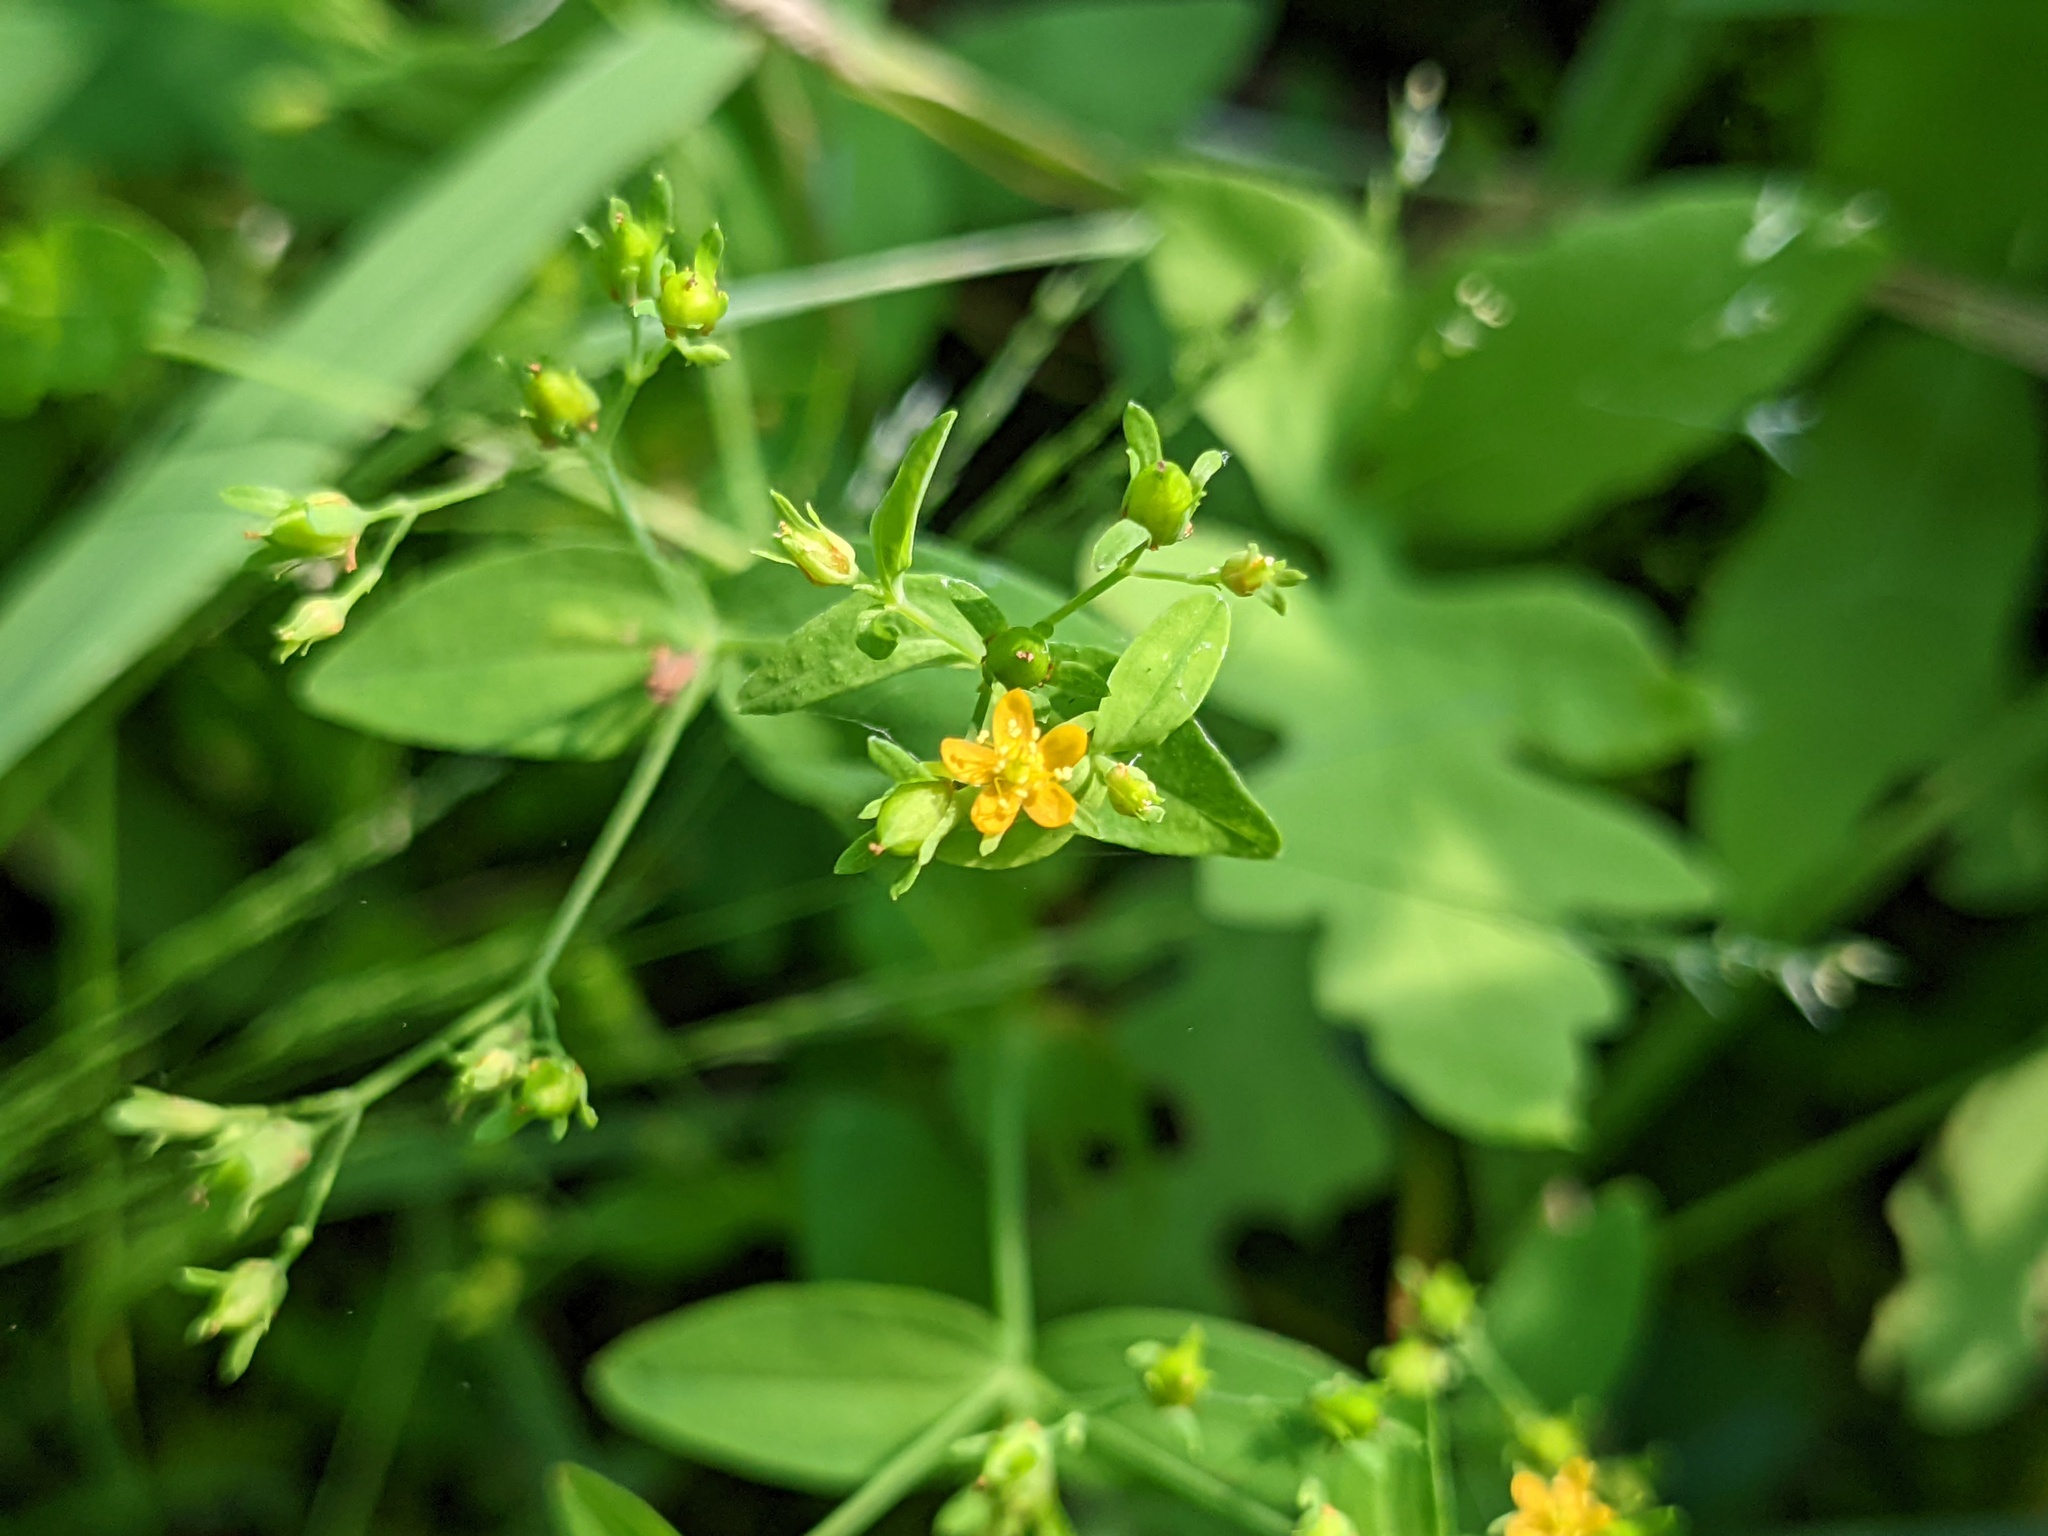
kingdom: Plantae
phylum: Tracheophyta
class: Magnoliopsida
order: Malpighiales
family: Hypericaceae
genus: Hypericum
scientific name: Hypericum mutilum
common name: Dwarf st. john's-wort
